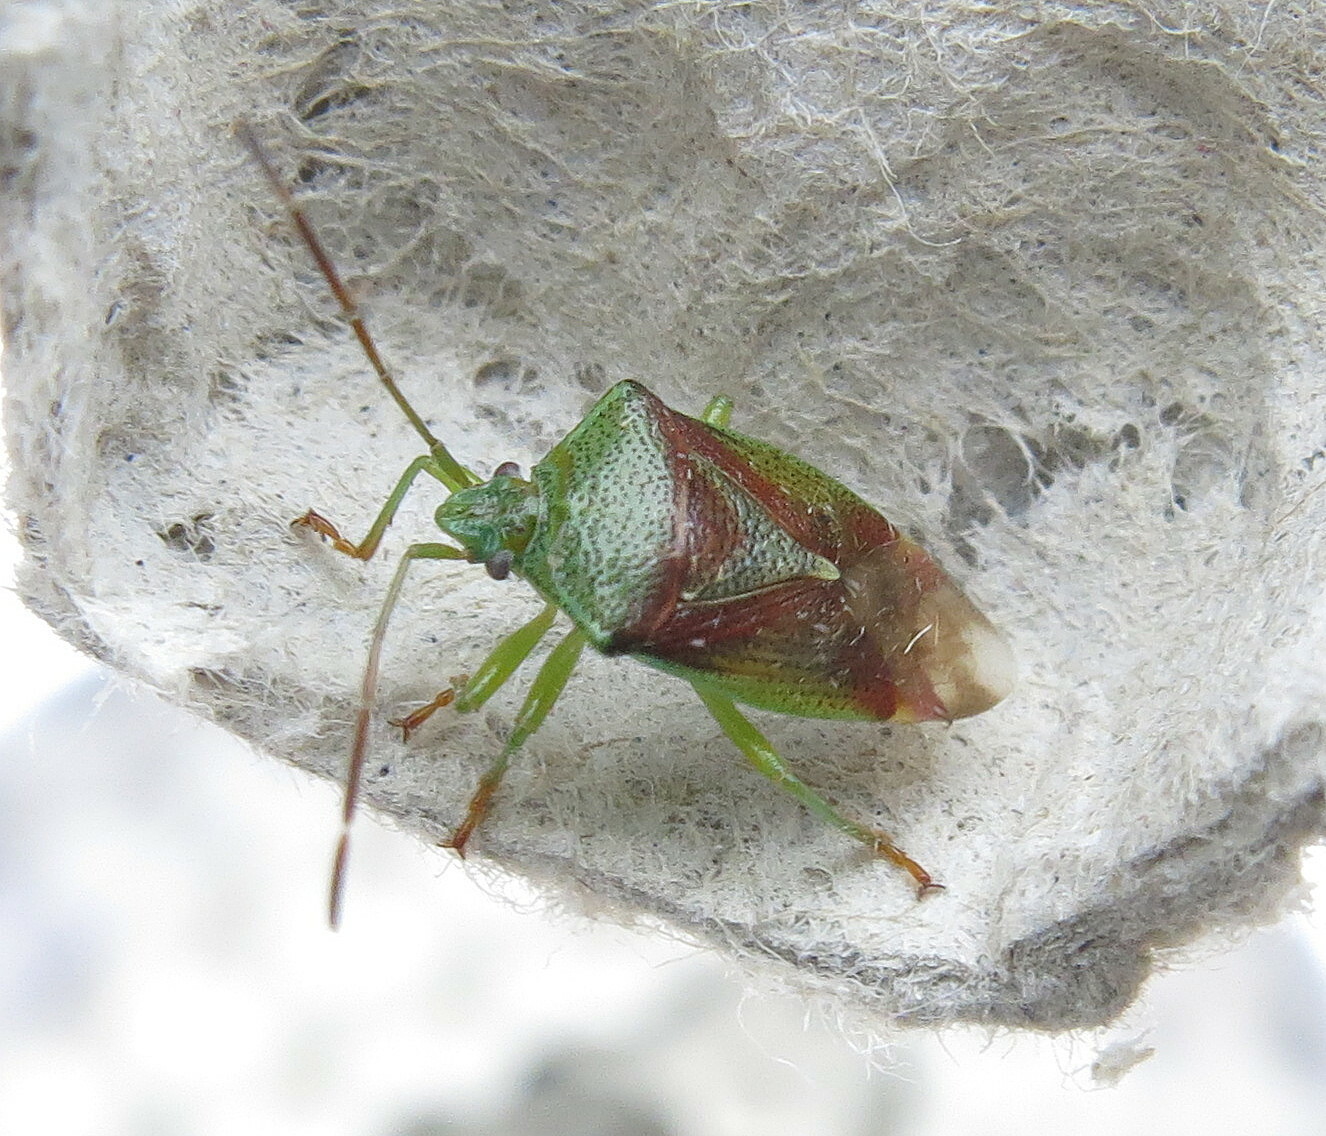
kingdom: Animalia
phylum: Arthropoda
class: Insecta
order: Hemiptera
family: Acanthosomatidae
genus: Elasmostethus
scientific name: Elasmostethus interstinctus
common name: Birch shieldbug
